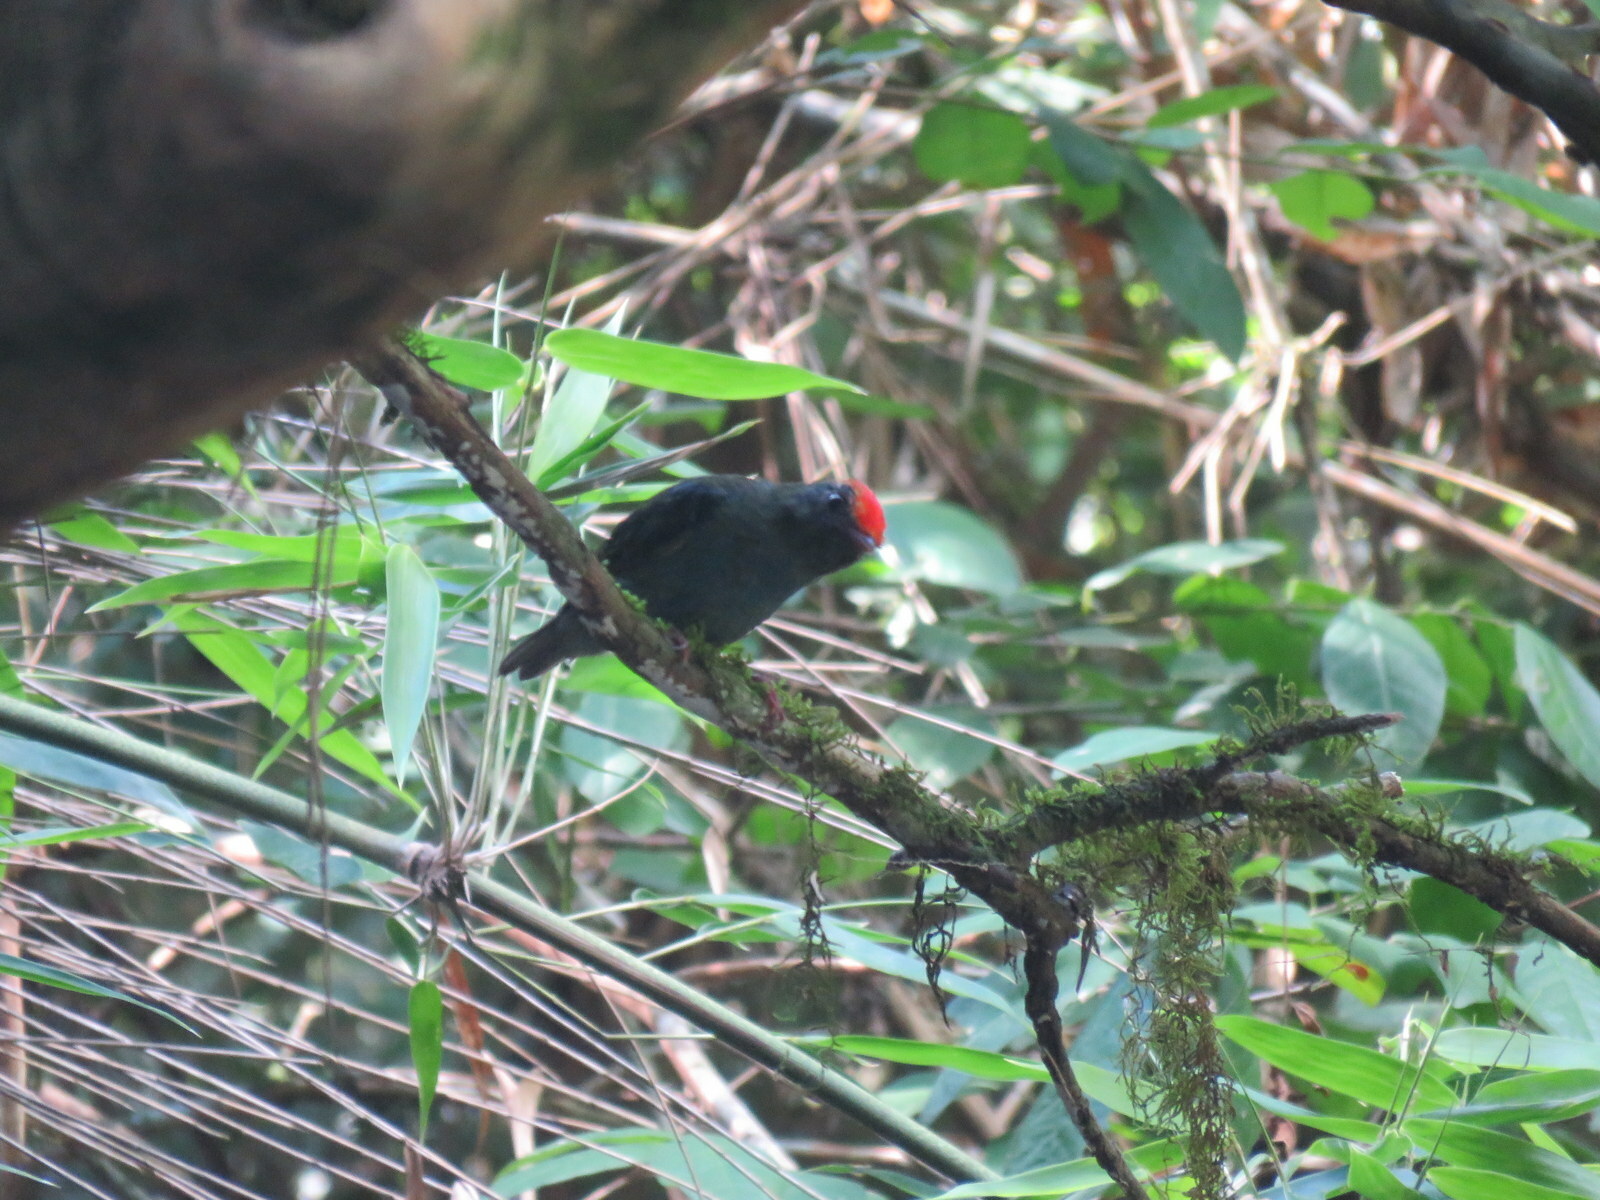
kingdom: Animalia
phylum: Chordata
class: Aves
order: Passeriformes
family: Pipridae
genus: Chiroxiphia
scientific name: Chiroxiphia caudata
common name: Blue manakin
